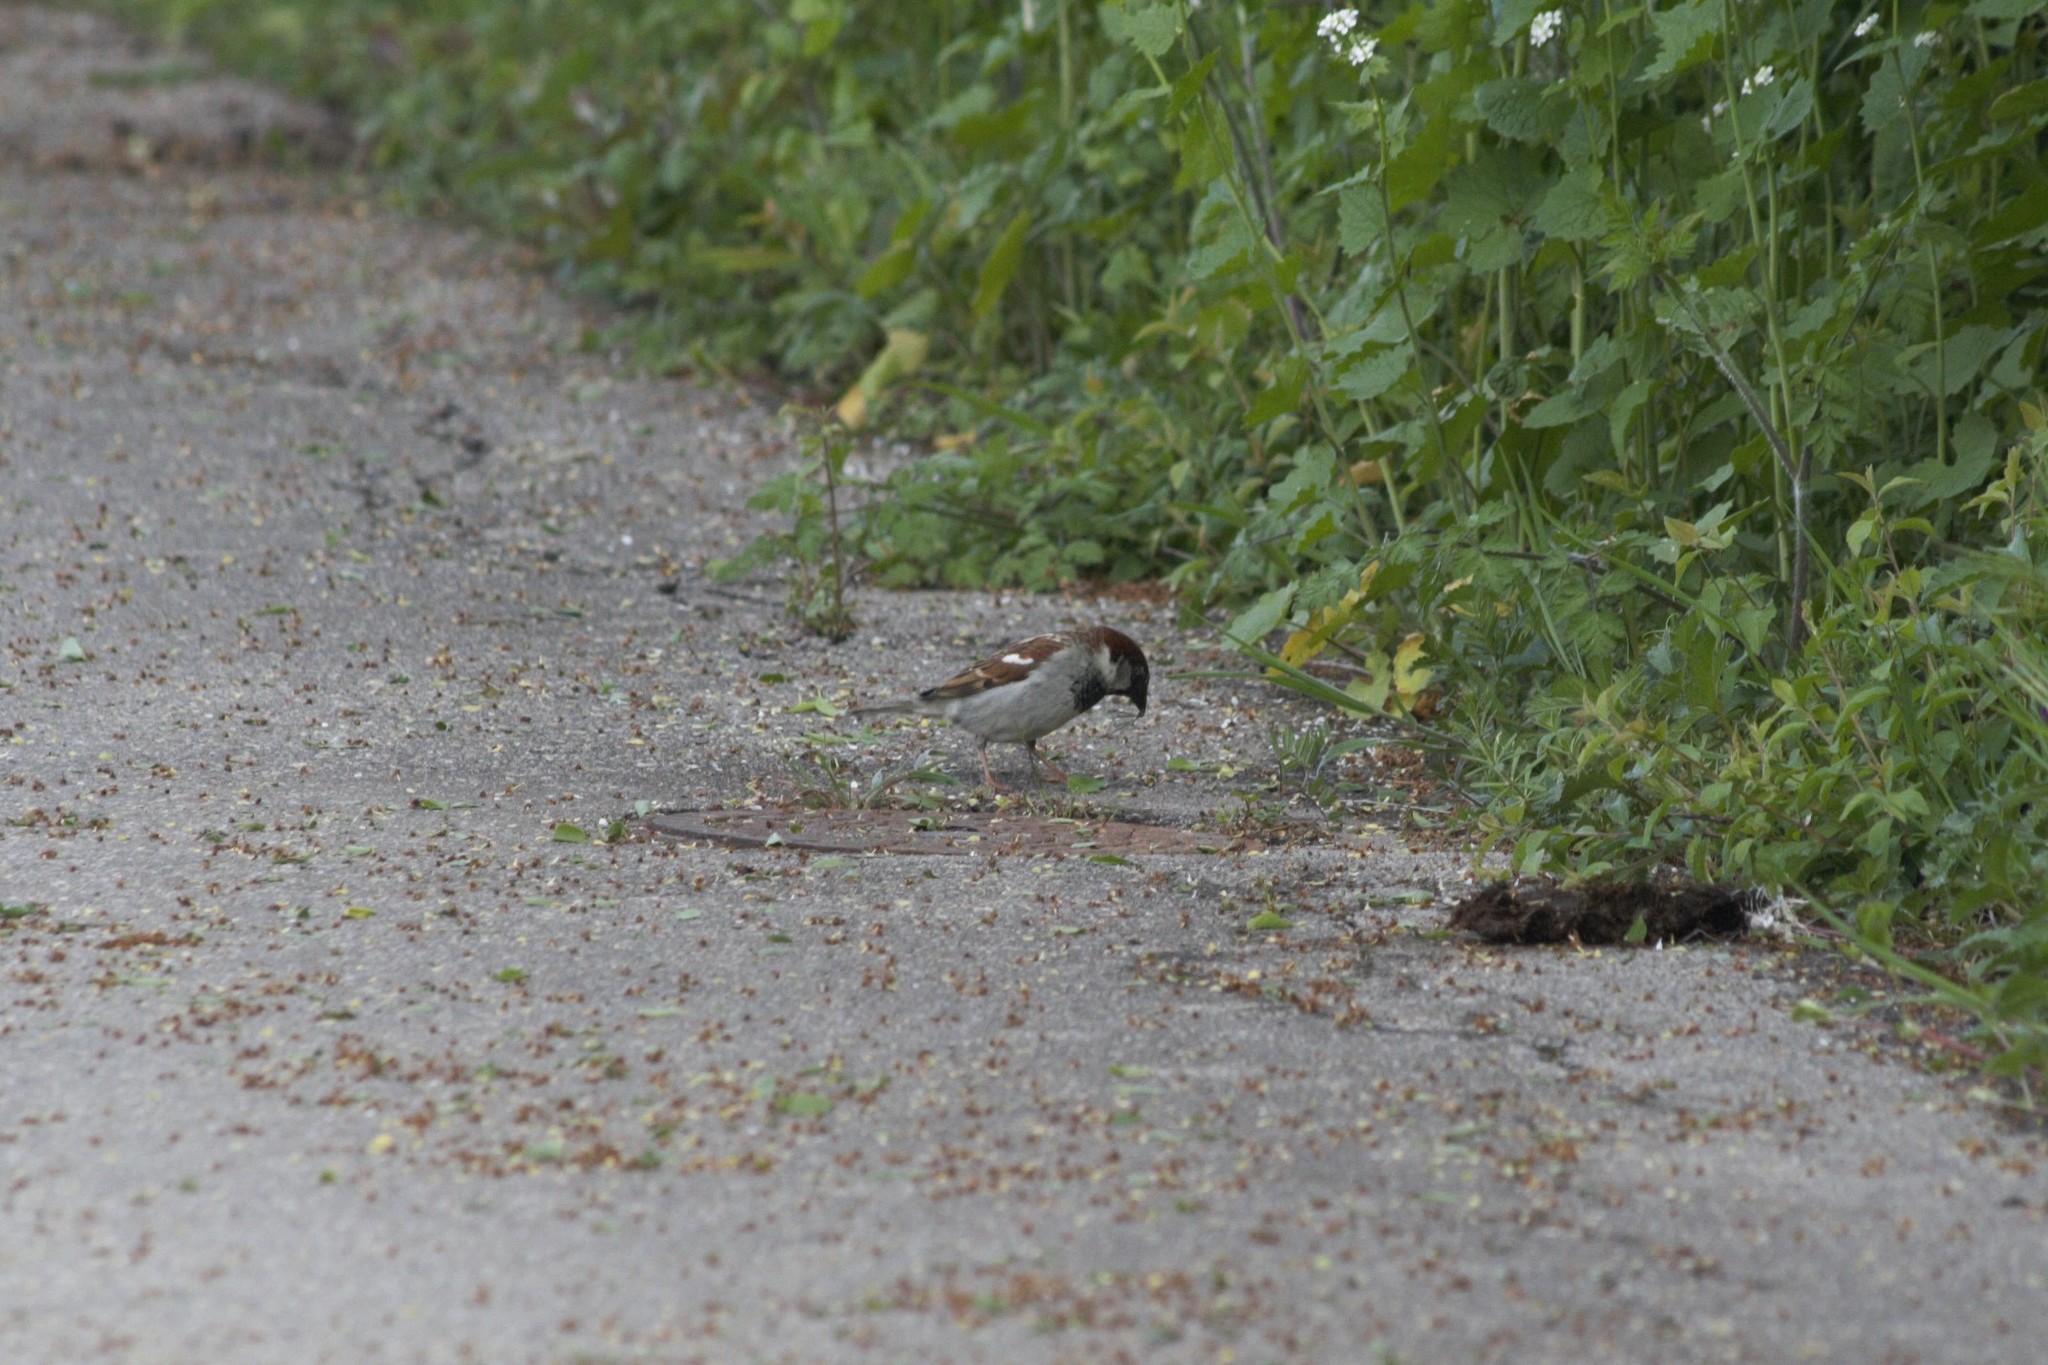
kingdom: Animalia
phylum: Chordata
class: Aves
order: Passeriformes
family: Passeridae
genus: Passer
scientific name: Passer domesticus
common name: House sparrow
